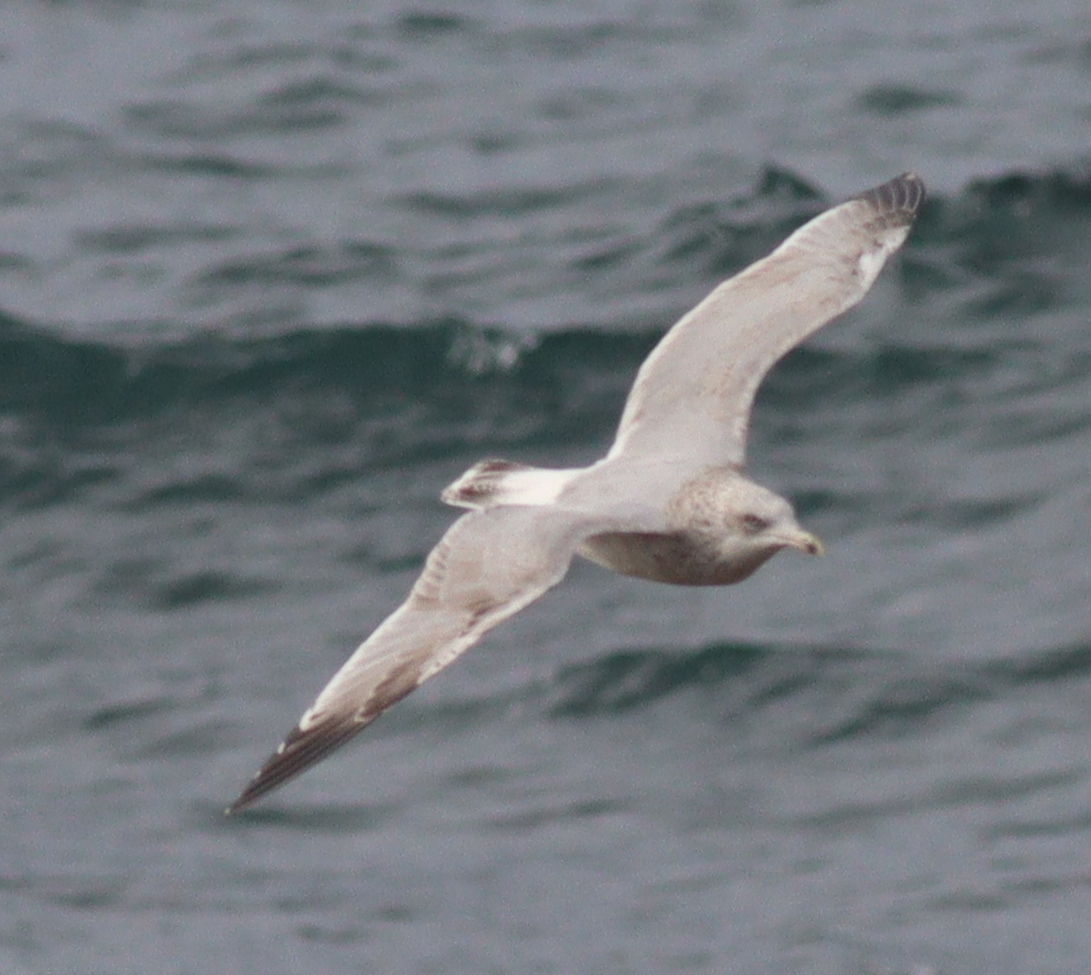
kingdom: Animalia
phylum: Chordata
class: Aves
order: Charadriiformes
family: Laridae
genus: Larus
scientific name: Larus argentatus
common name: Herring gull
